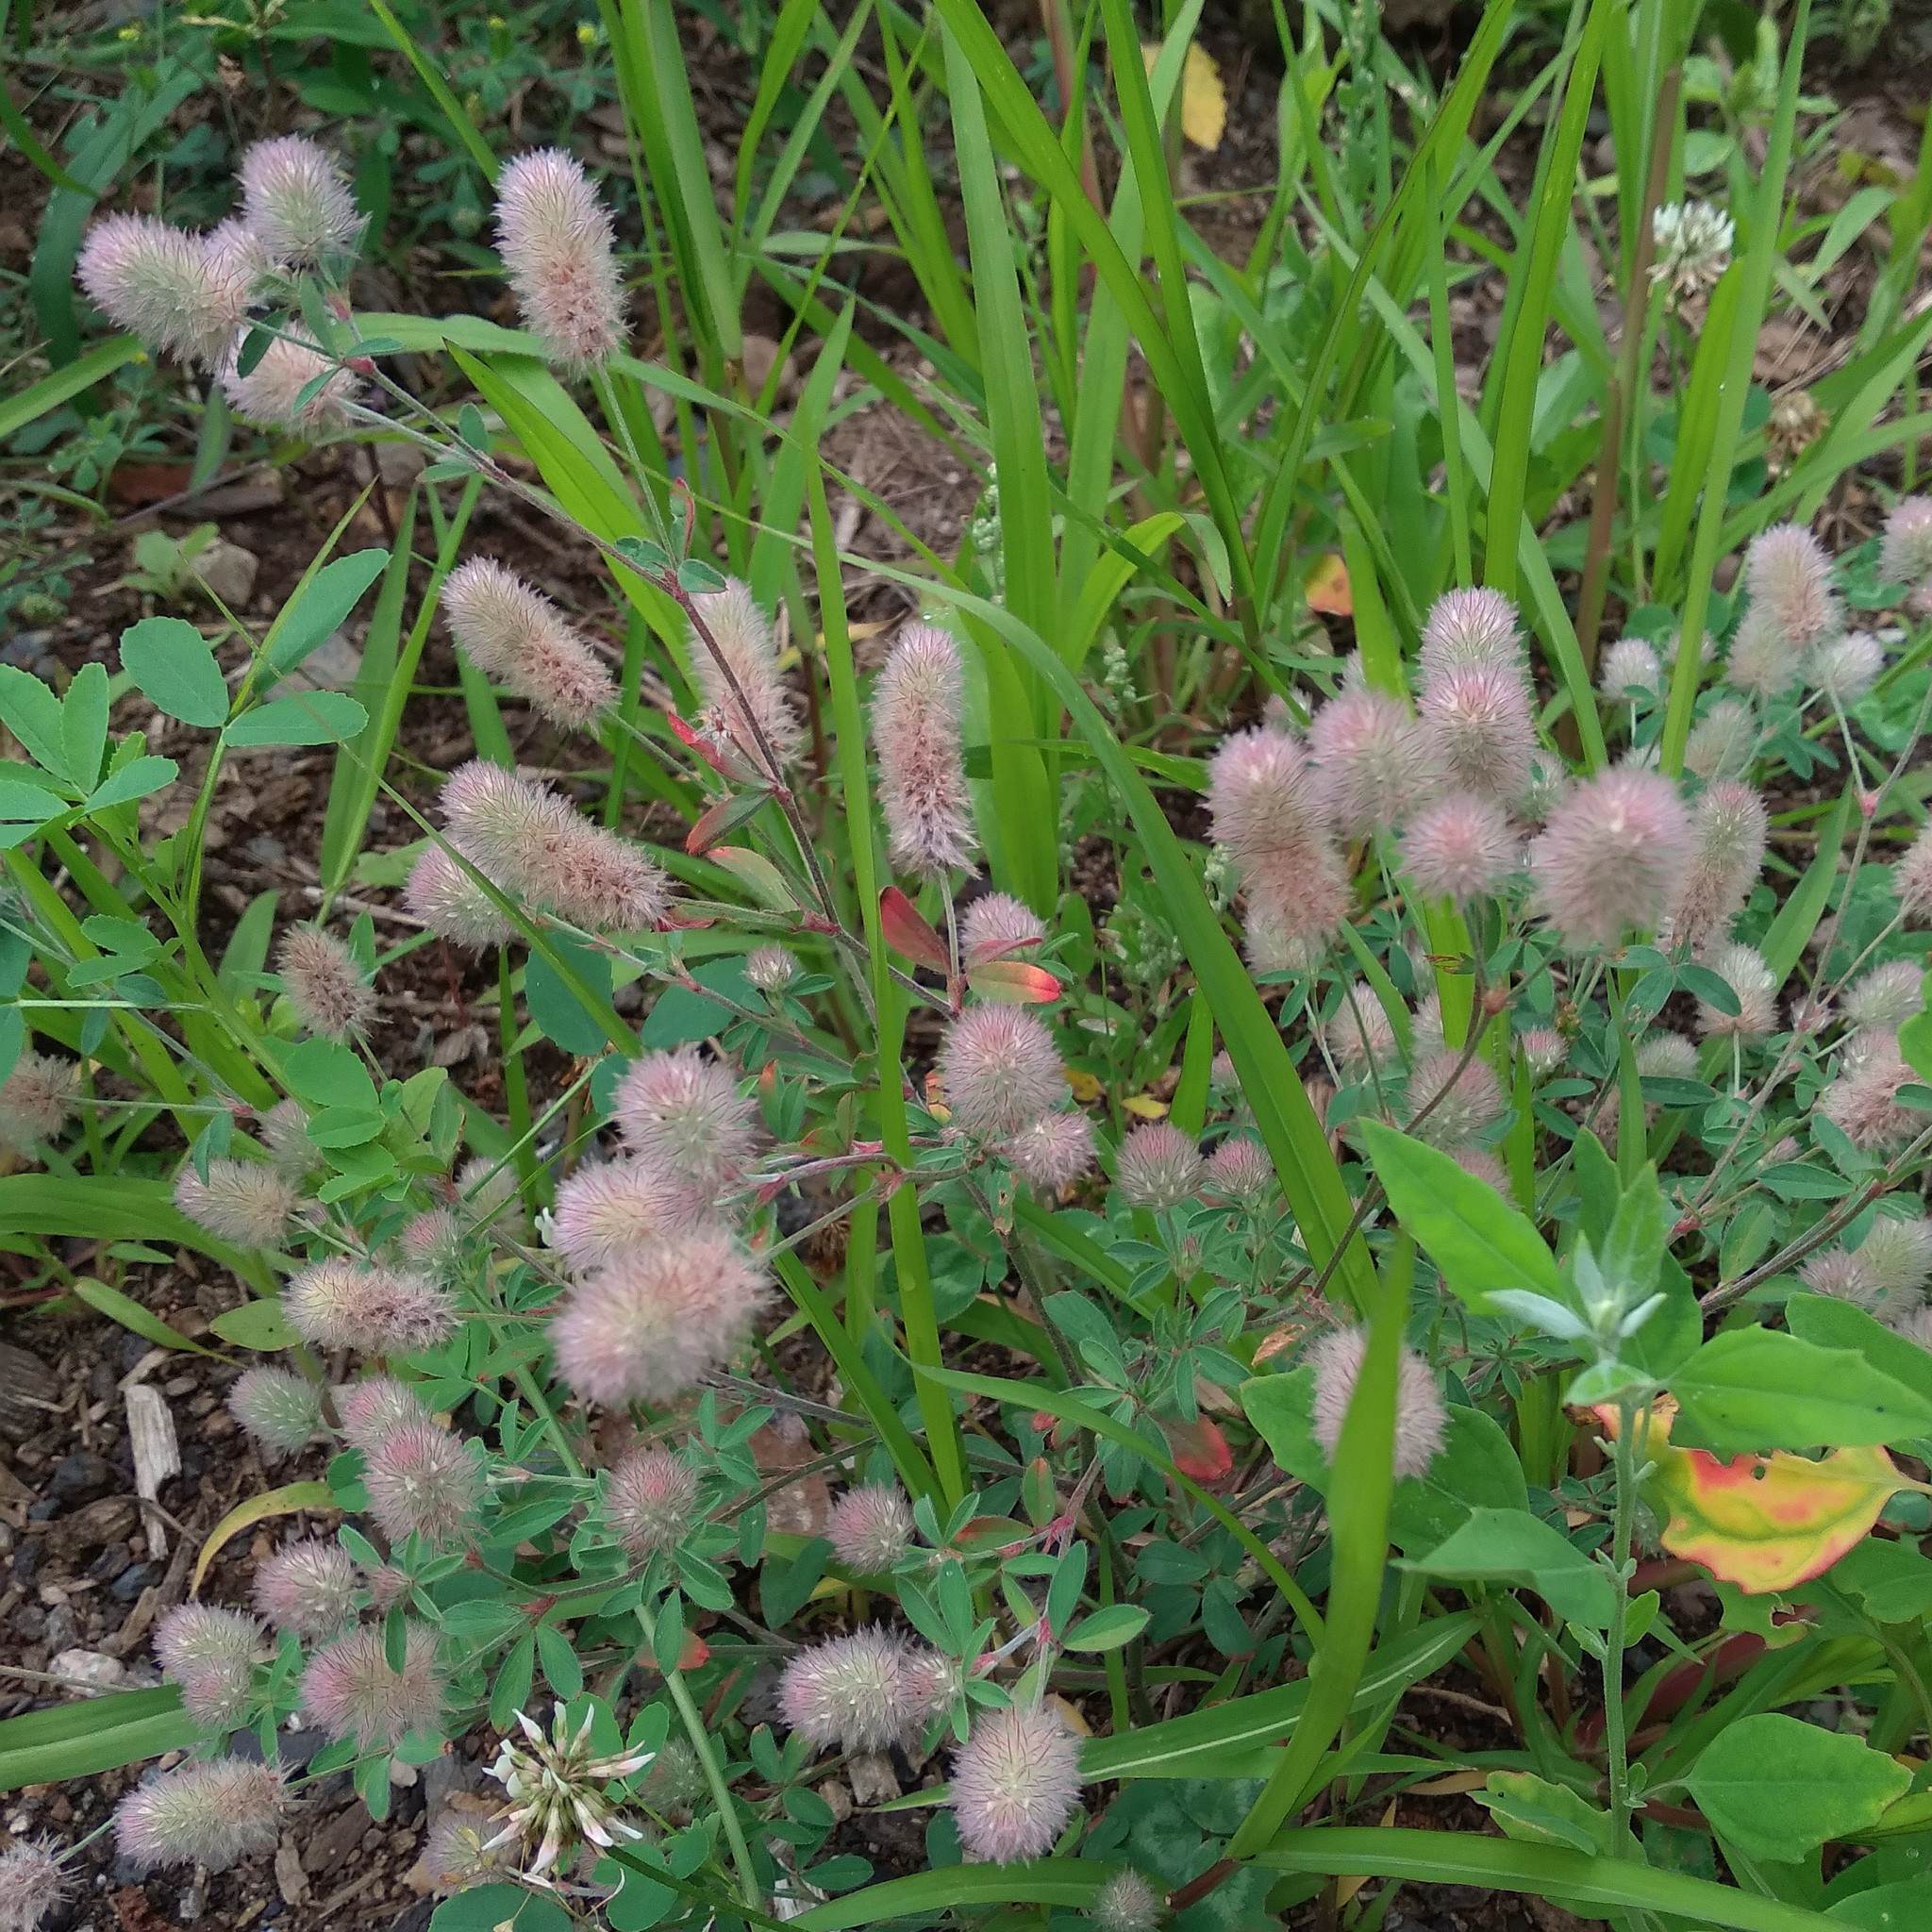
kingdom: Plantae
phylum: Tracheophyta
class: Magnoliopsida
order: Fabales
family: Fabaceae
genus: Trifolium
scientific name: Trifolium arvense
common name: Hare's-foot clover
